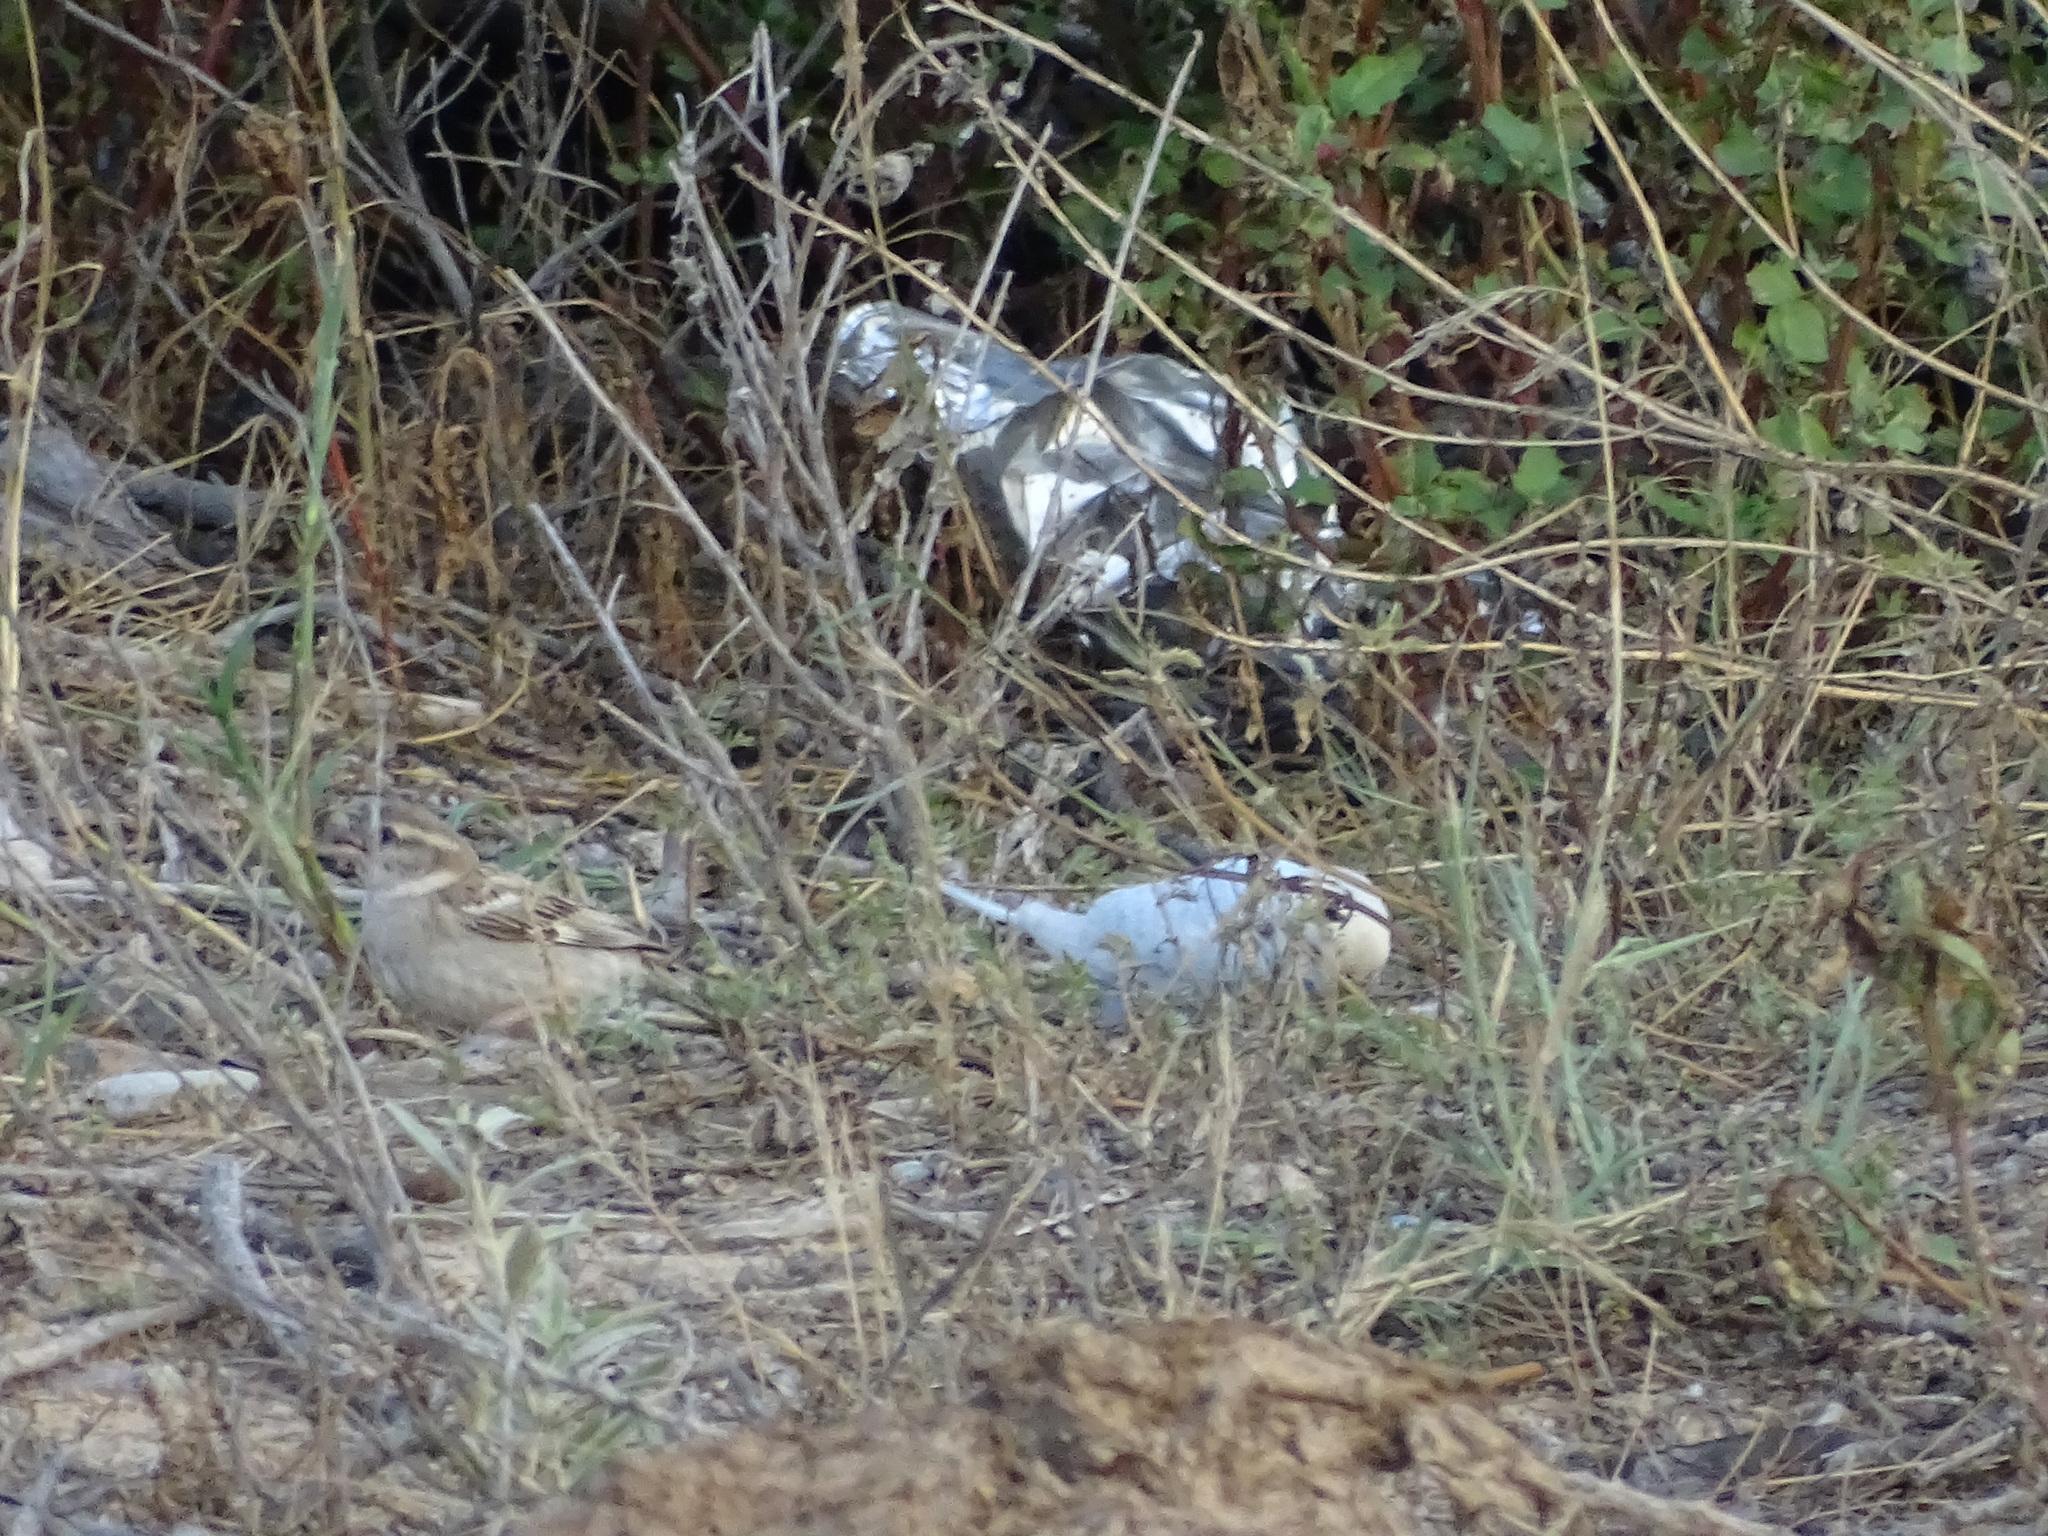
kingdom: Animalia
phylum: Chordata
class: Aves
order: Psittaciformes
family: Psittacidae
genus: Melopsittacus
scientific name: Melopsittacus undulatus
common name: Budgerigar
